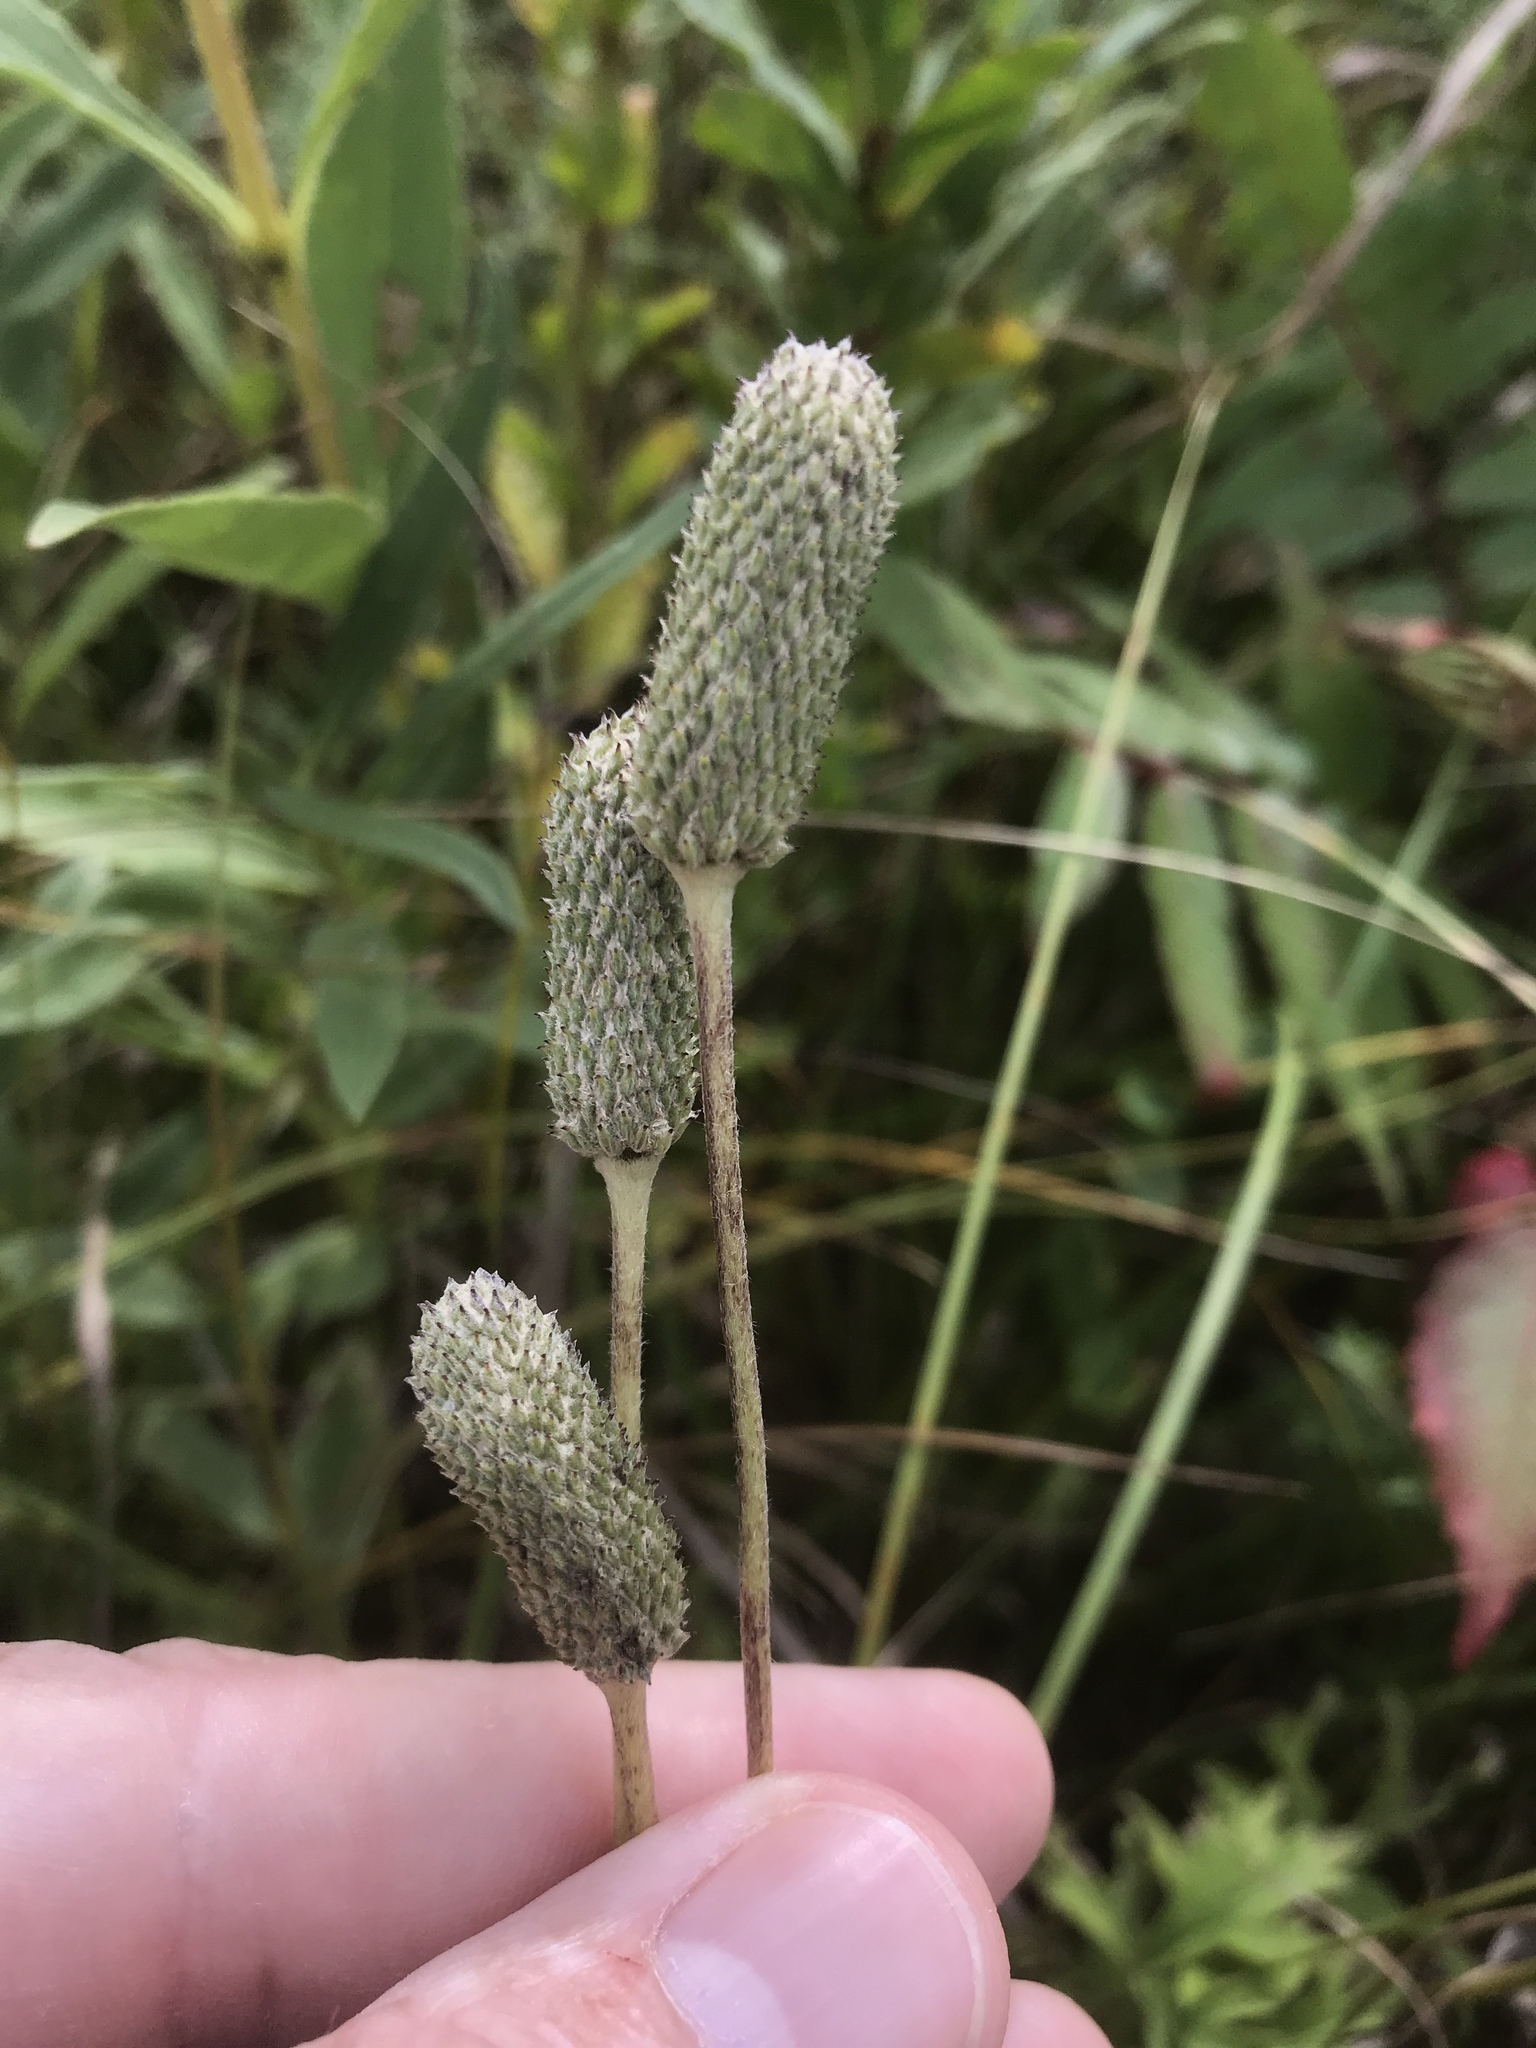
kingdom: Plantae
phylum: Tracheophyta
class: Magnoliopsida
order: Ranunculales
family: Ranunculaceae
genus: Anemone
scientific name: Anemone cylindrica
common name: Candle anemone
